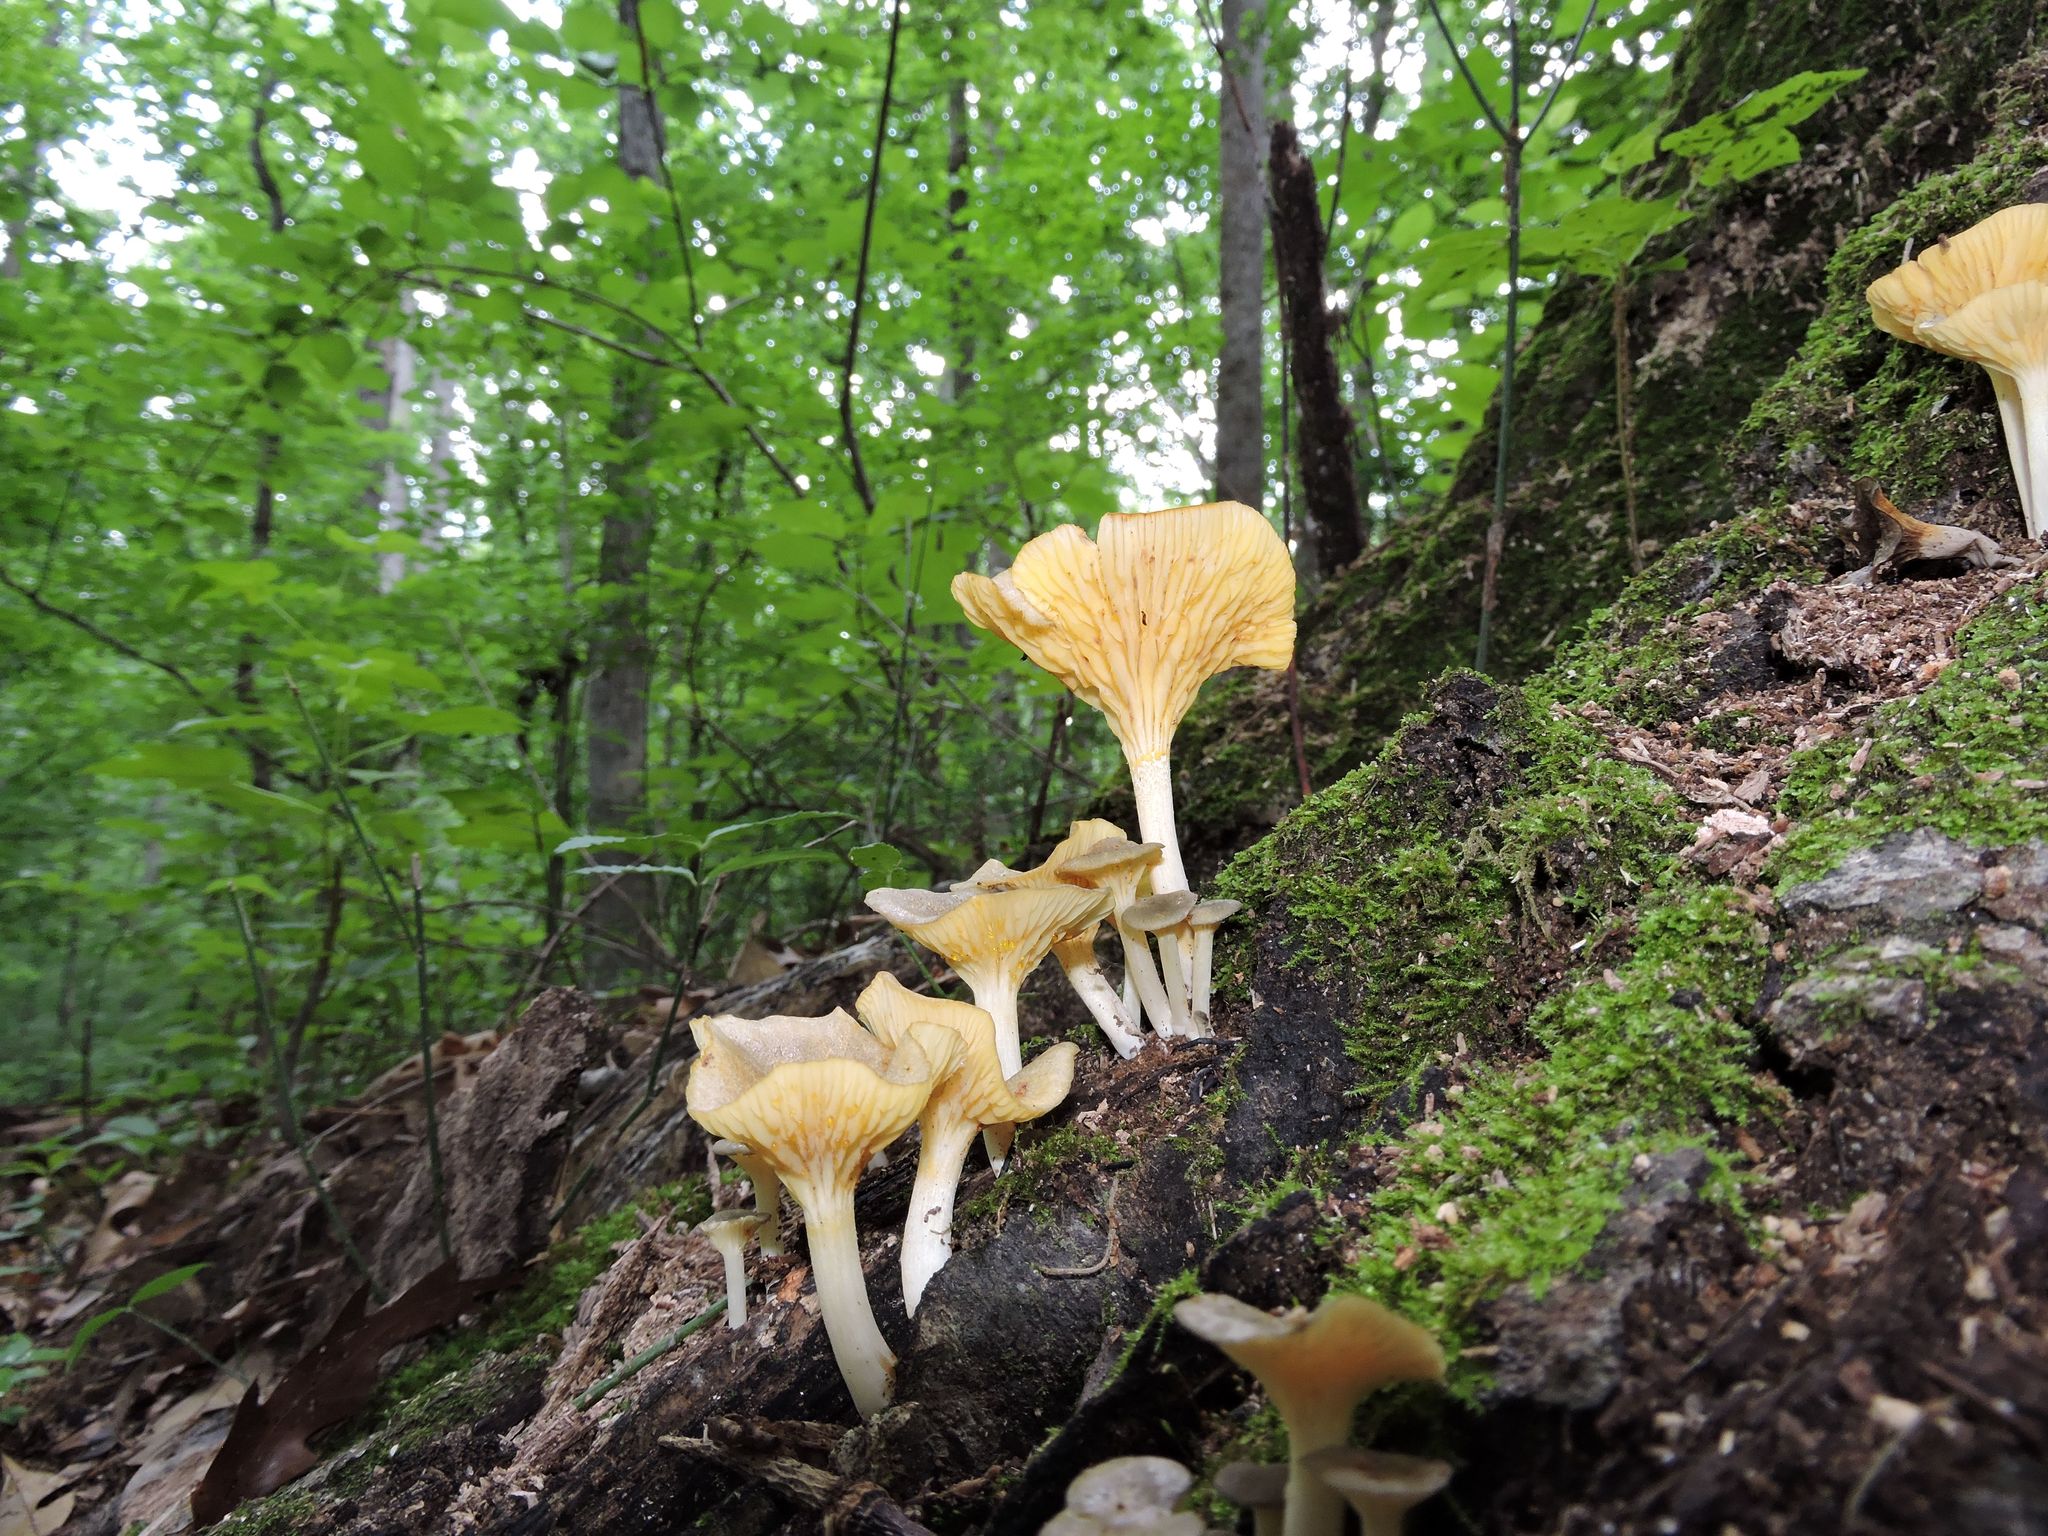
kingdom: Fungi
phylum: Basidiomycota
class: Agaricomycetes
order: Agaricales
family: Marasmiaceae
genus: Gerronema
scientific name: Gerronema strombodes
